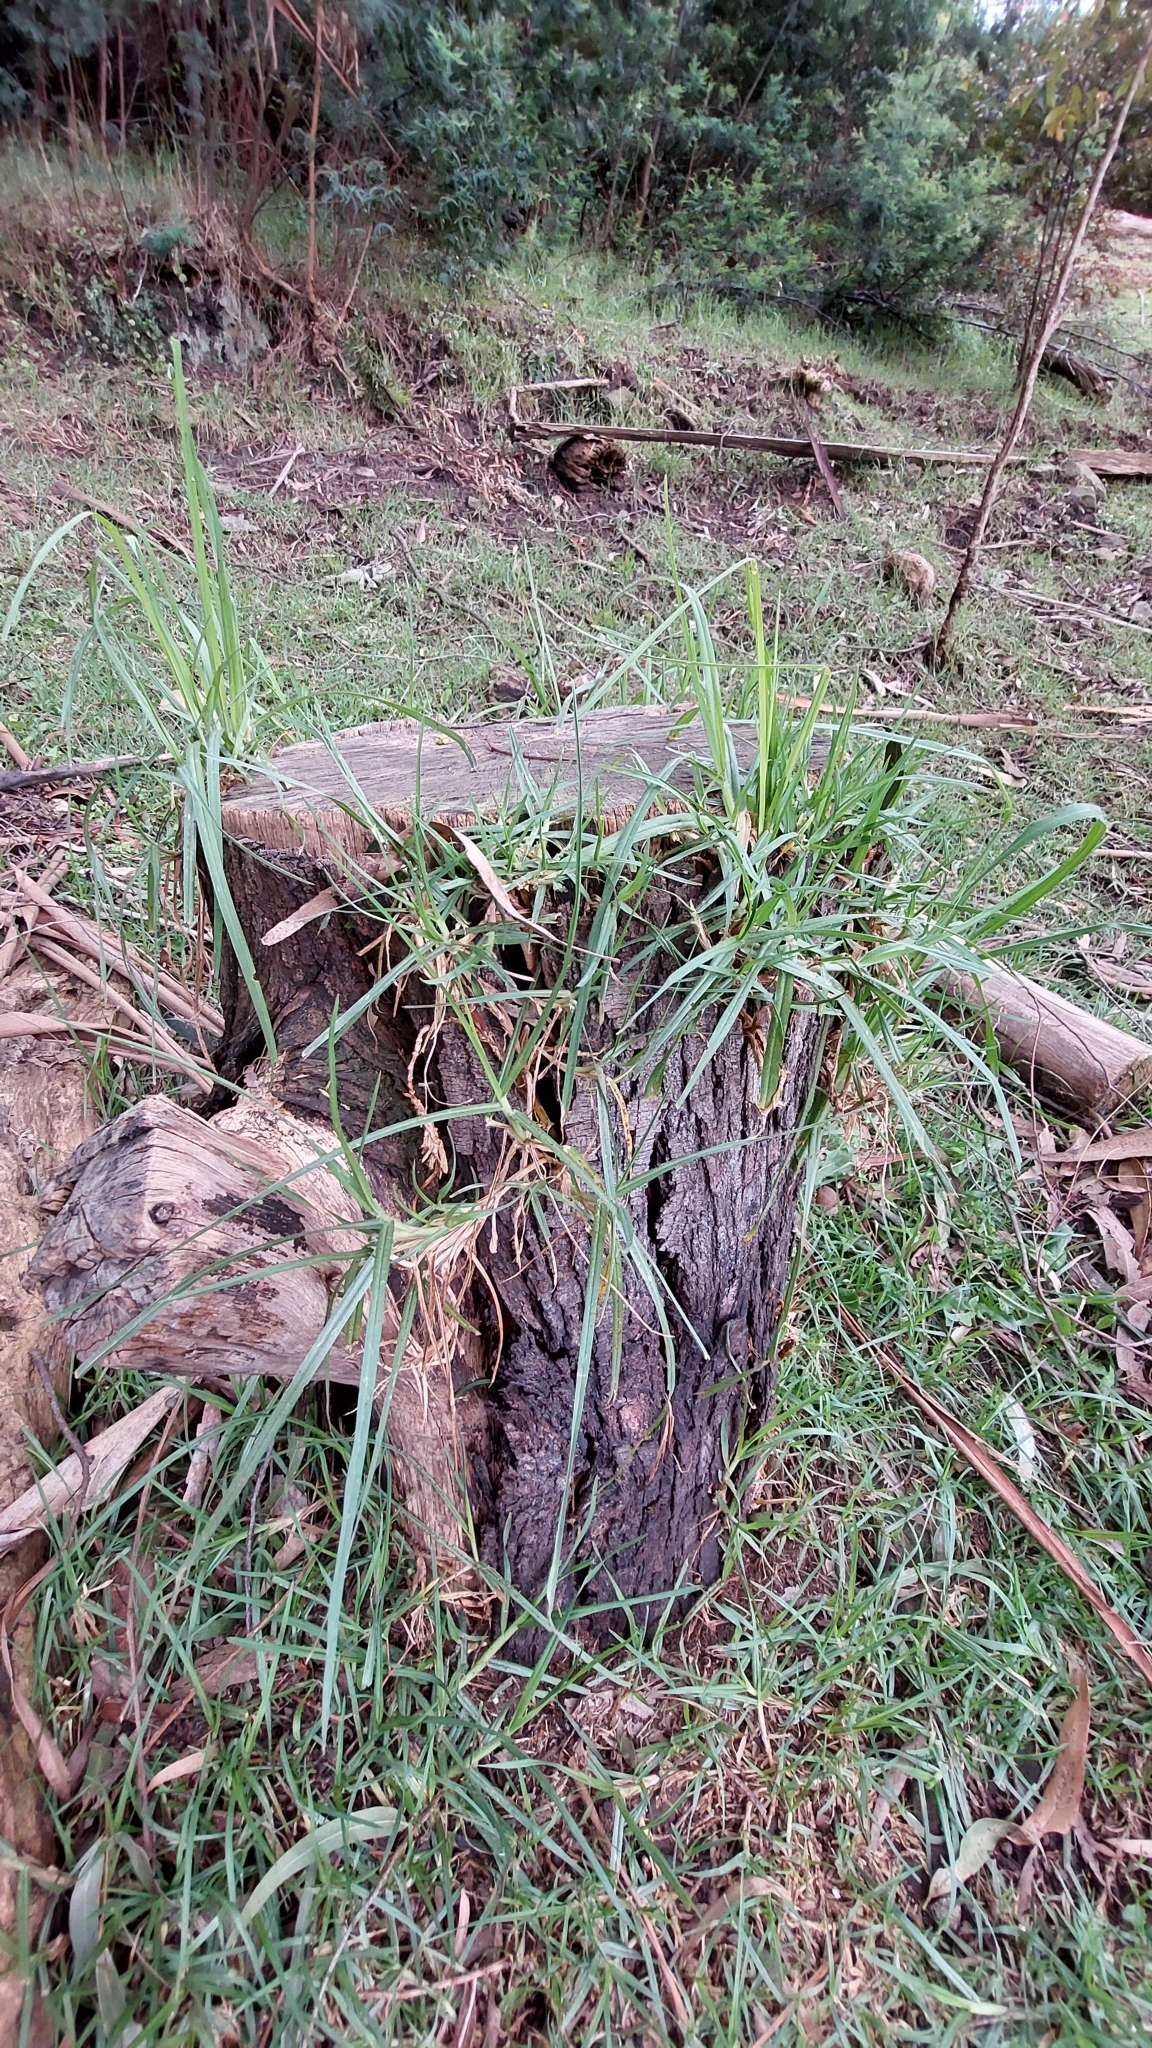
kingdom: Plantae
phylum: Tracheophyta
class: Liliopsida
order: Poales
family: Poaceae
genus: Cenchrus
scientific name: Cenchrus clandestinus
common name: Kikuyugrass
